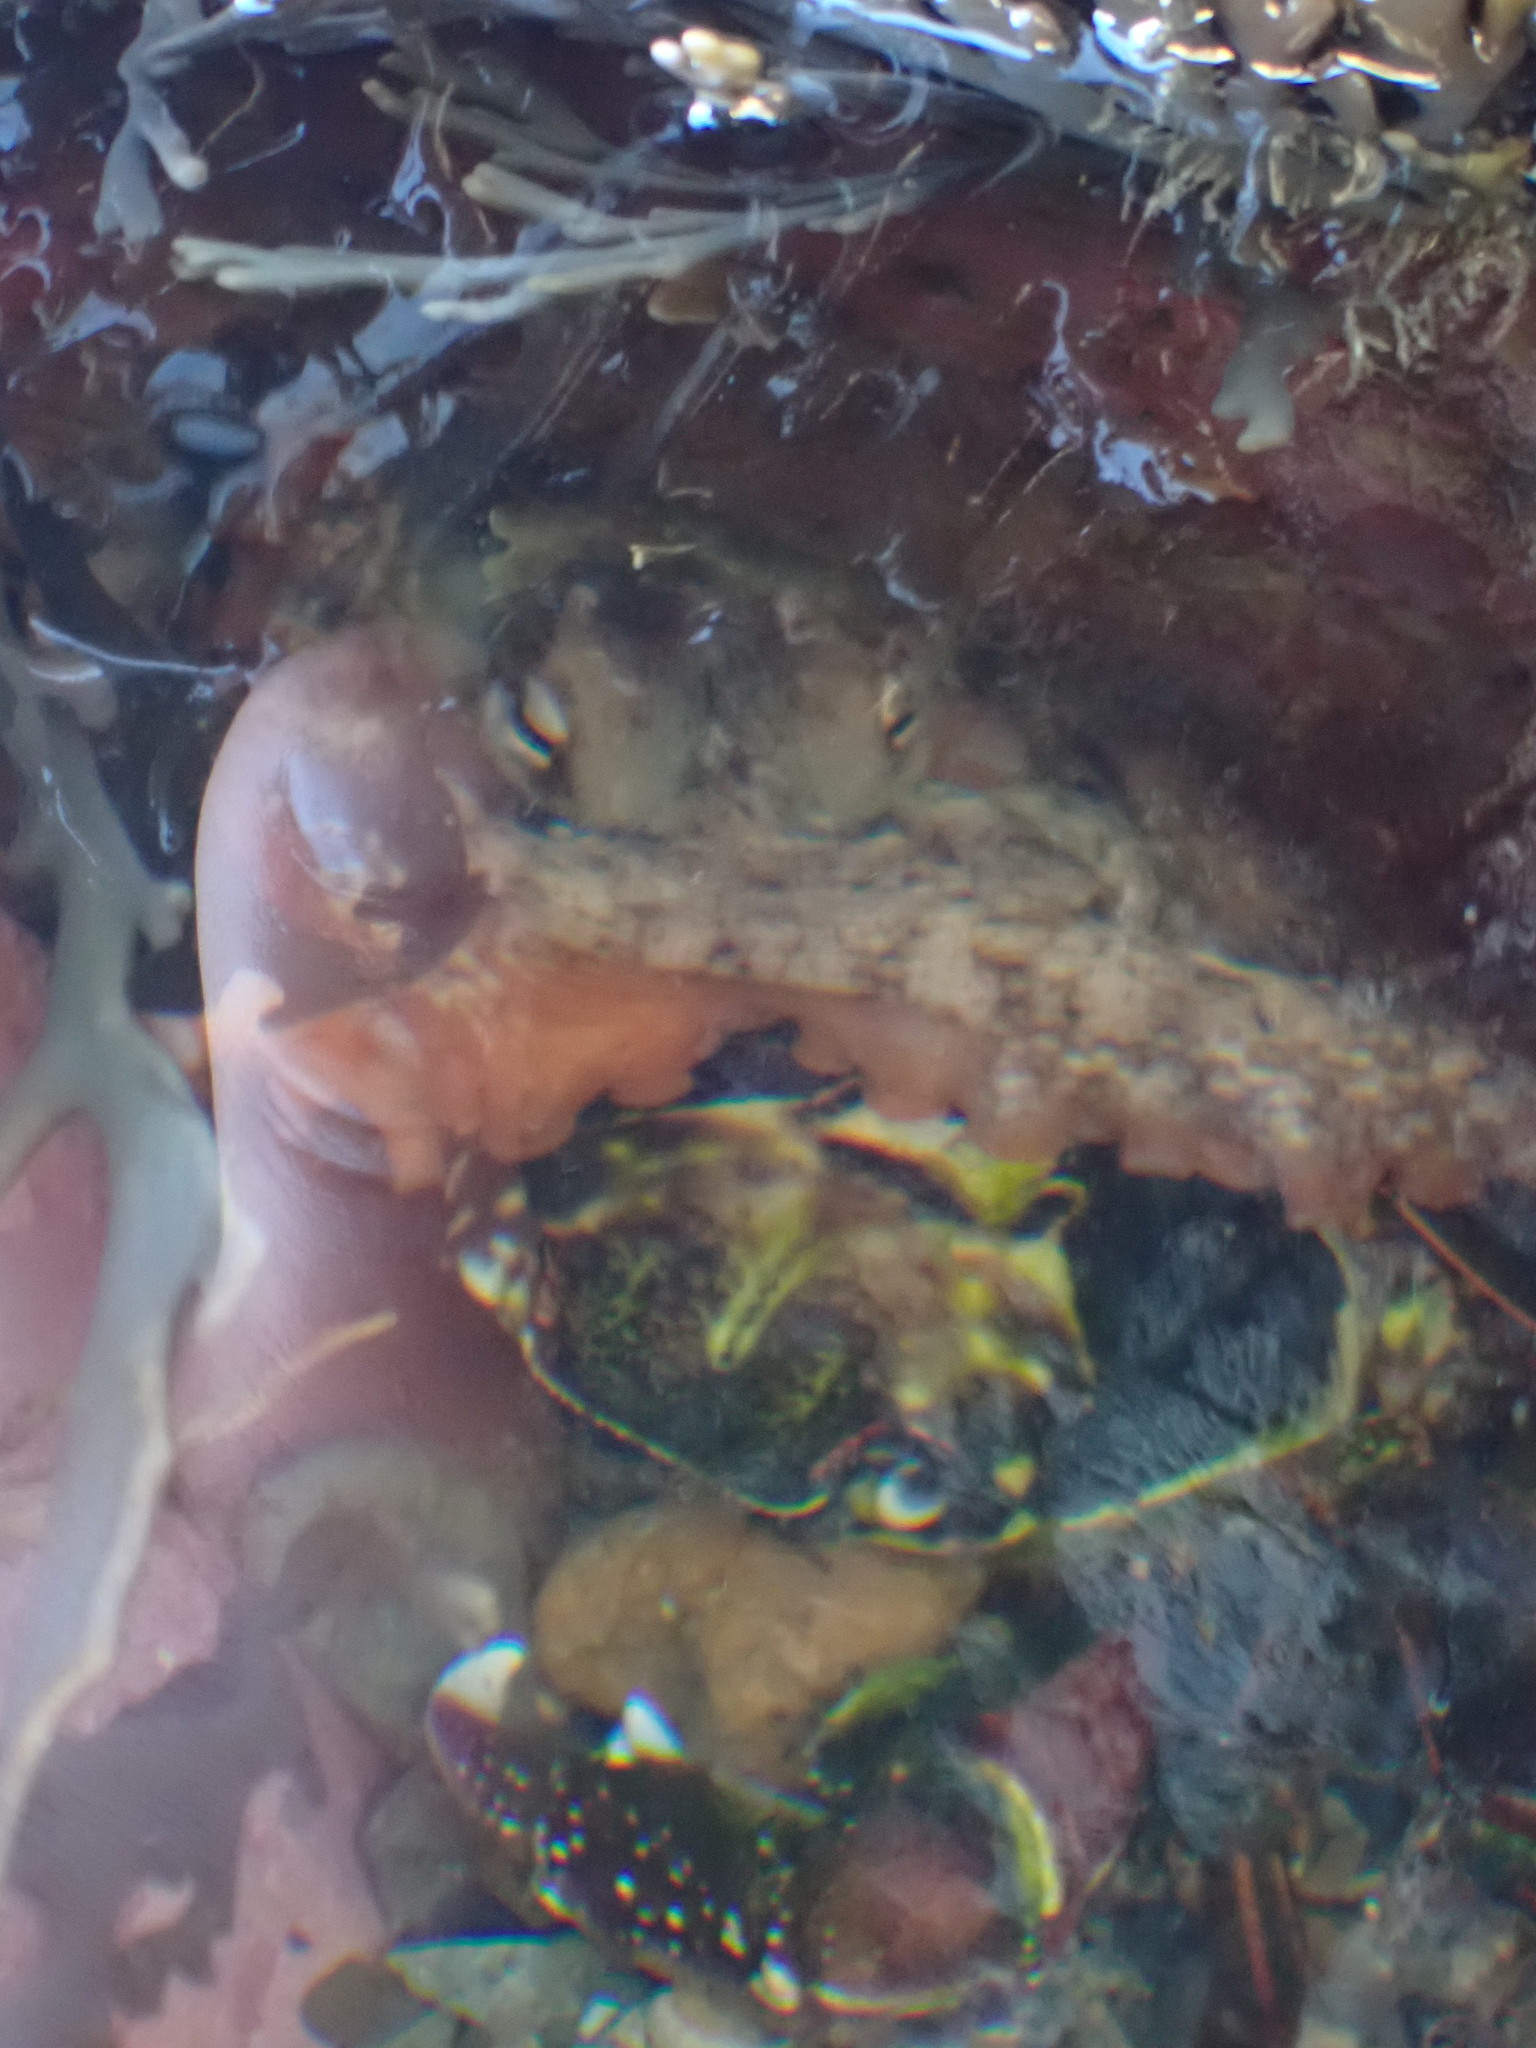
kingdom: Animalia
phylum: Mollusca
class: Cephalopoda
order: Octopoda
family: Octopodidae
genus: Octopus
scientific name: Octopus tetricus
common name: Sydney octopus
